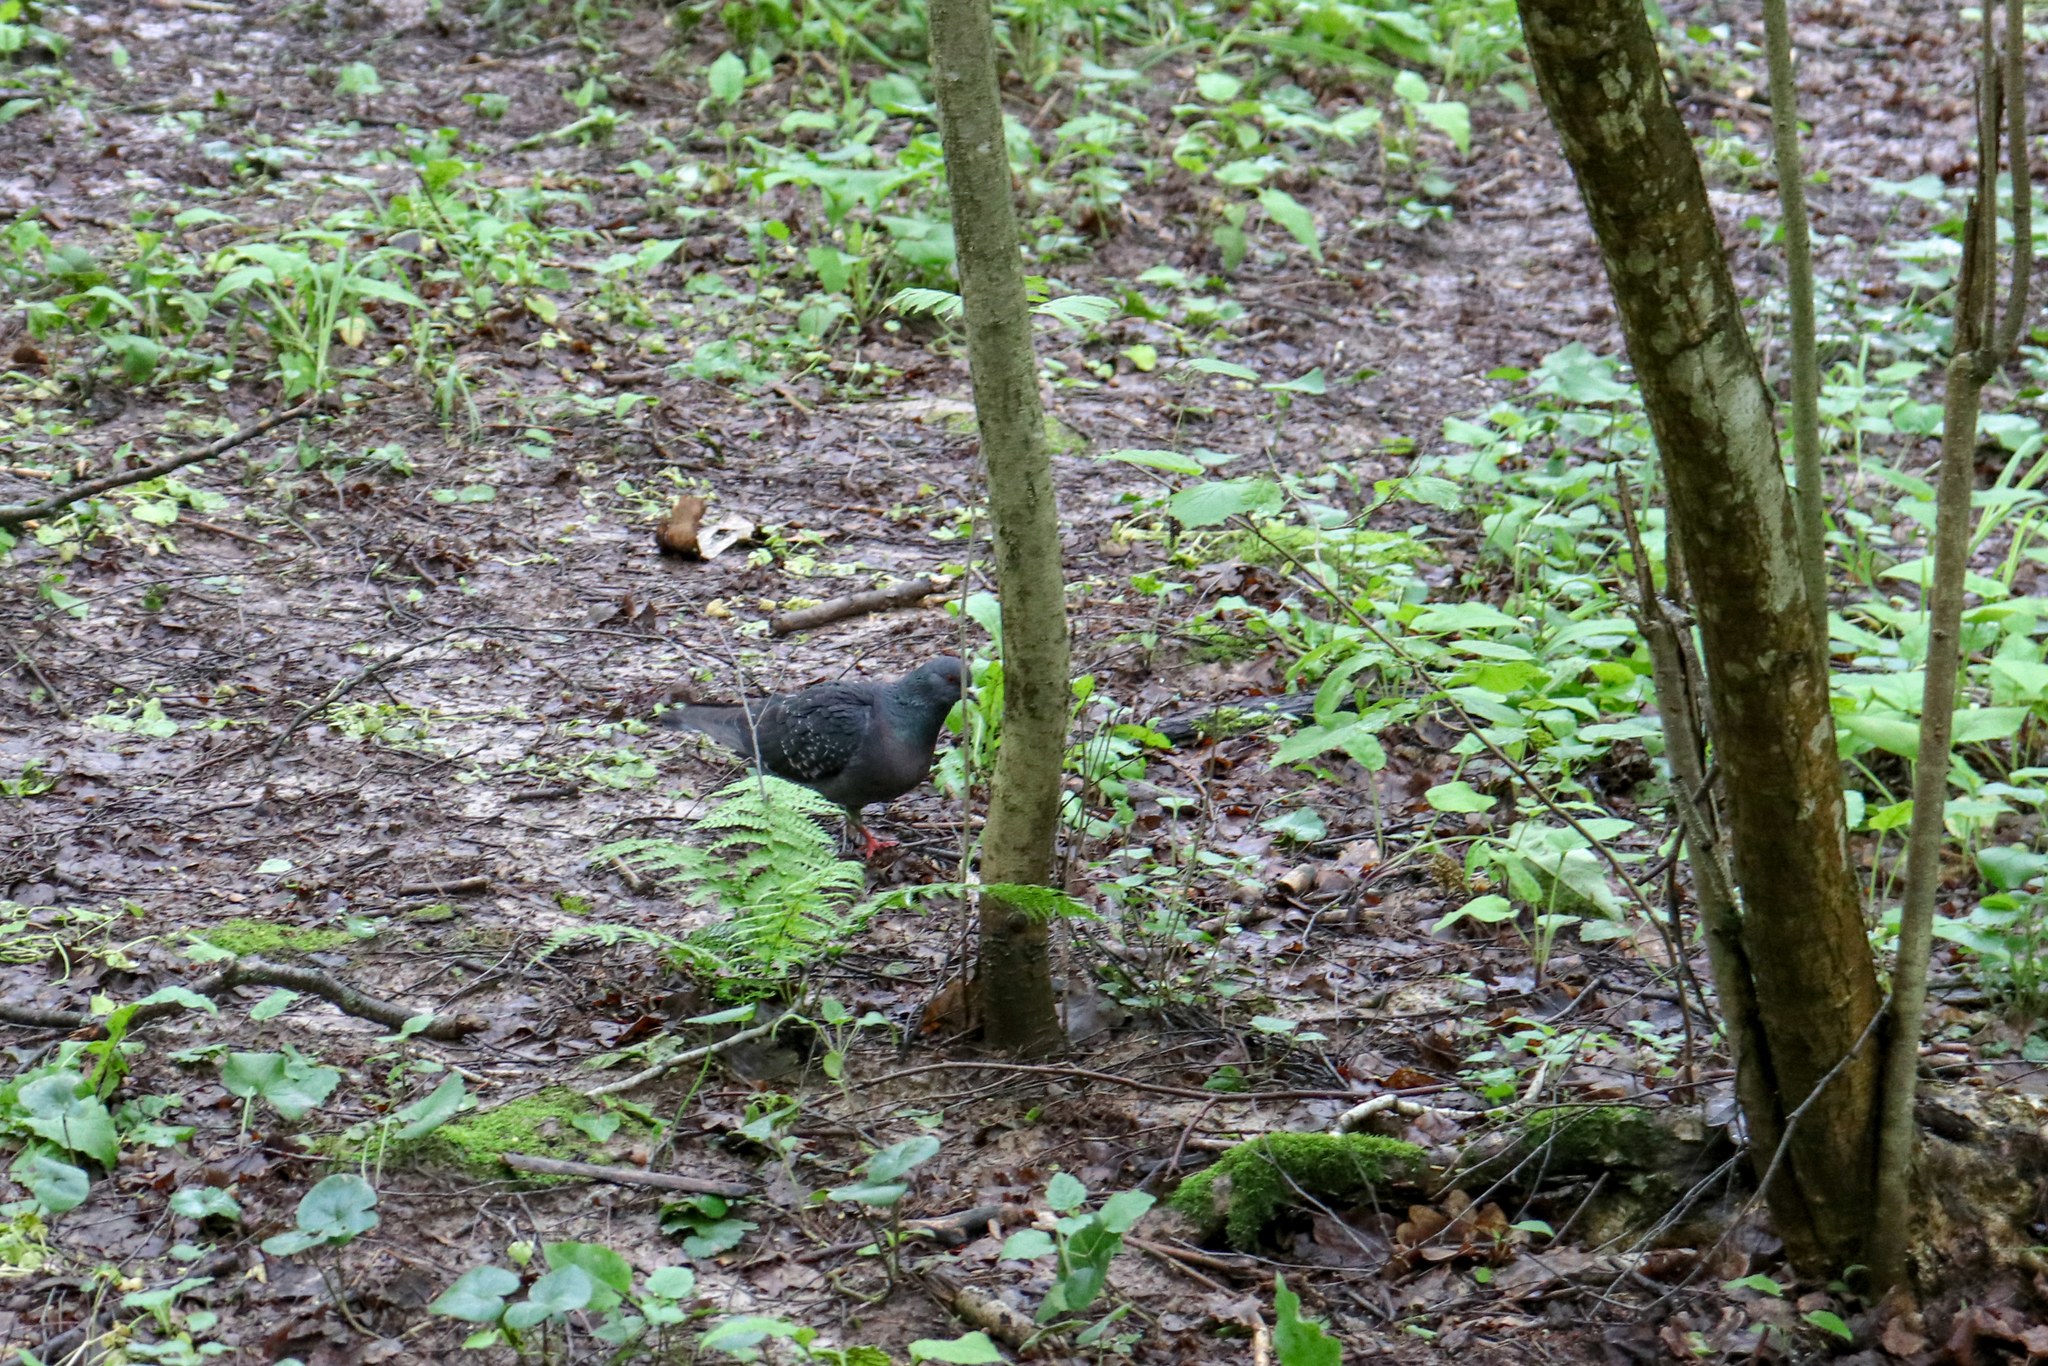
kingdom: Animalia
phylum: Chordata
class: Aves
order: Columbiformes
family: Columbidae
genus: Columba
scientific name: Columba livia
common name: Rock pigeon
